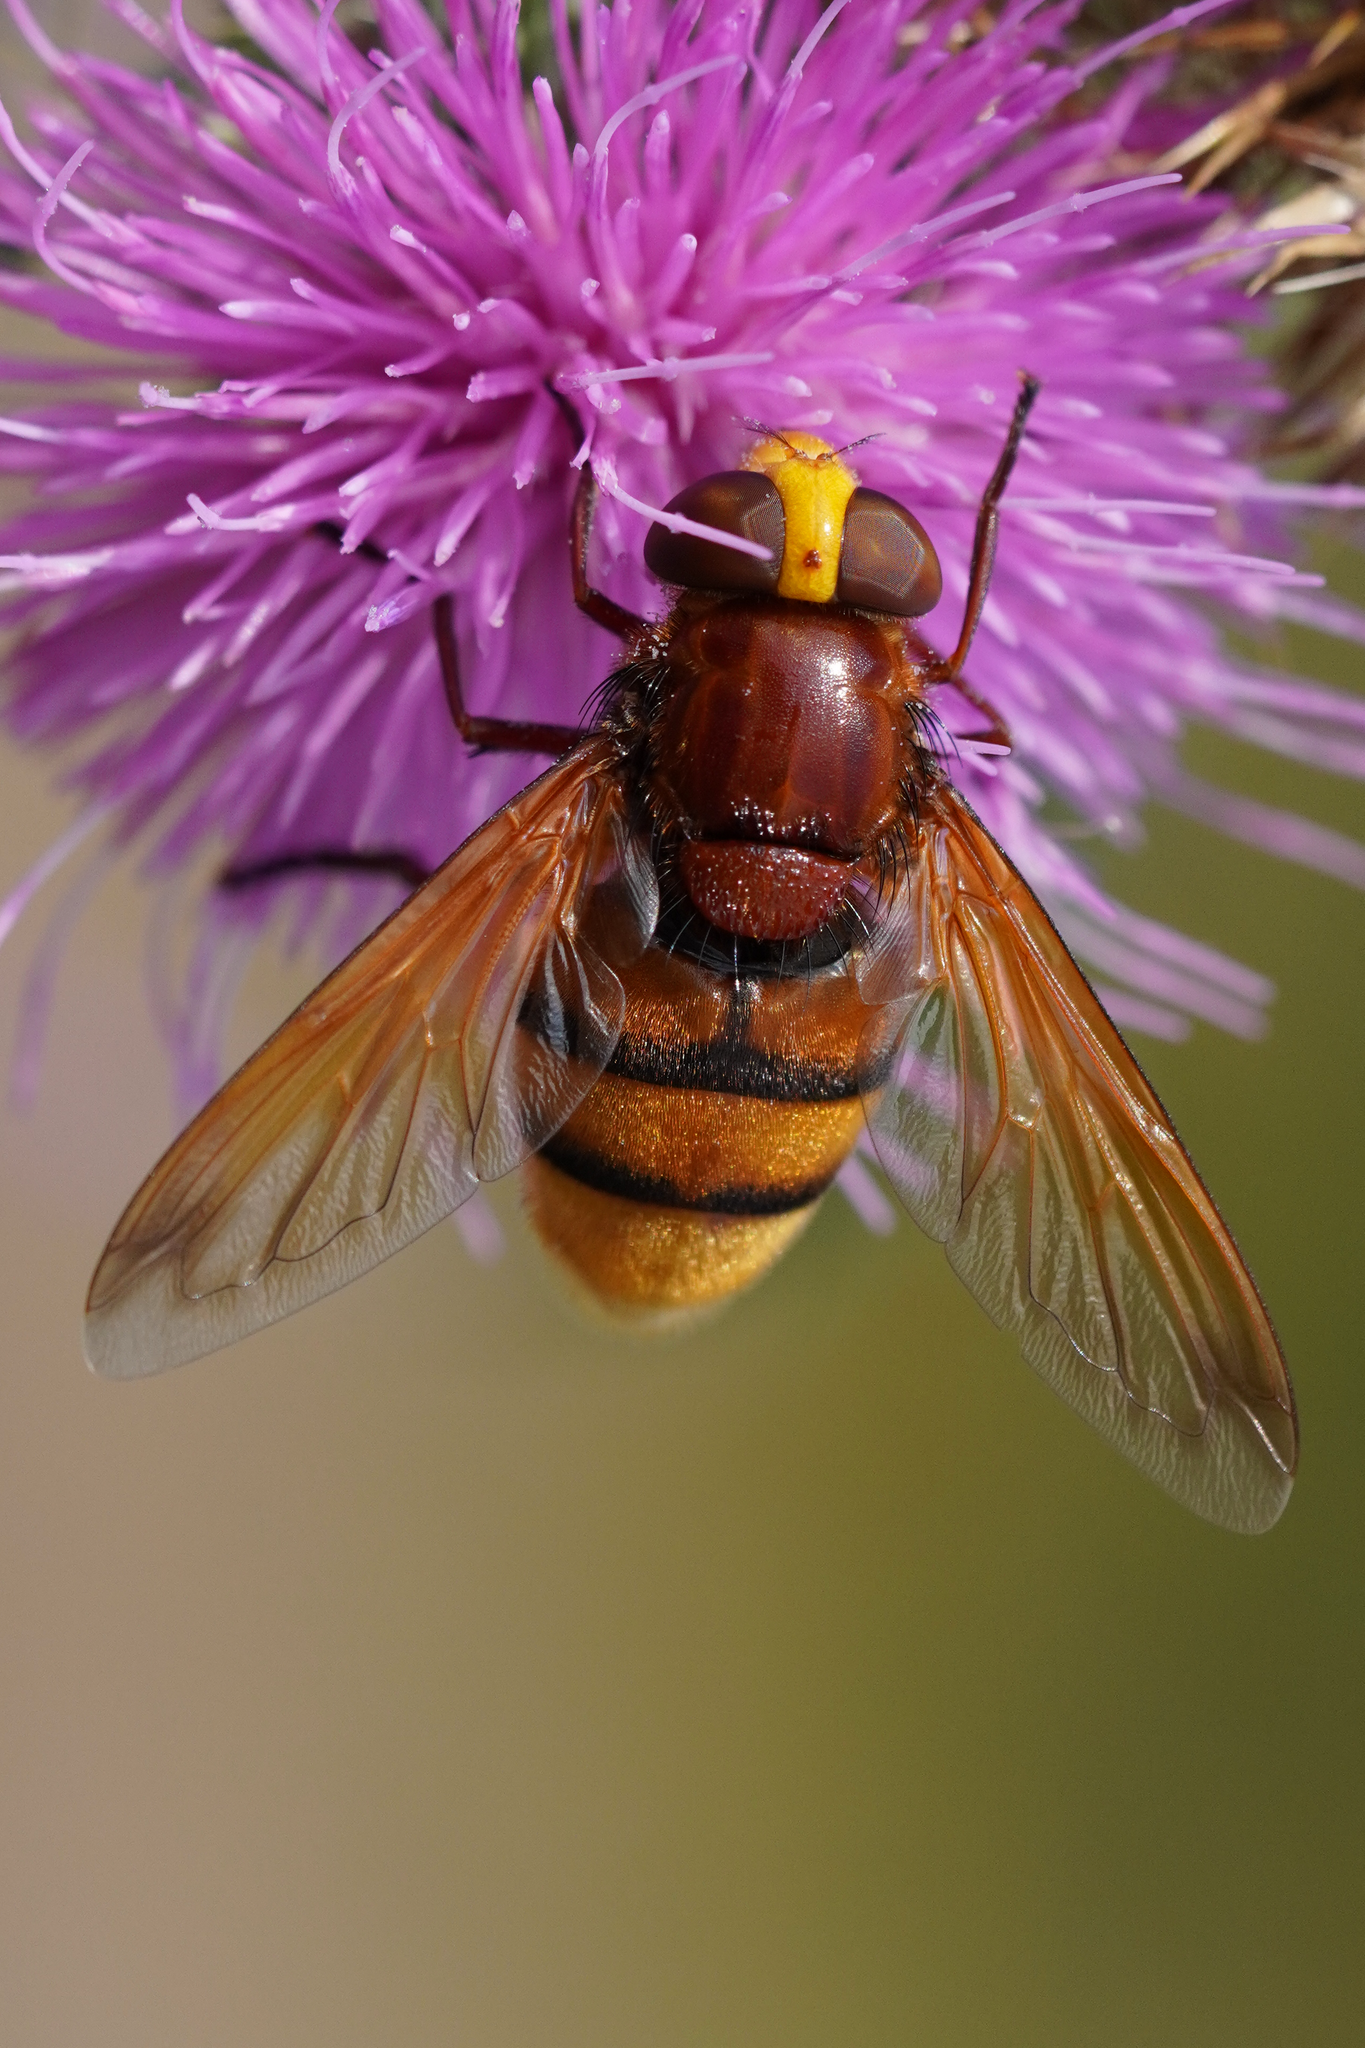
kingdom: Animalia
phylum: Arthropoda
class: Insecta
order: Diptera
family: Syrphidae
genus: Volucella
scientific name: Volucella zonaria
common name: Hornet hoverfly
